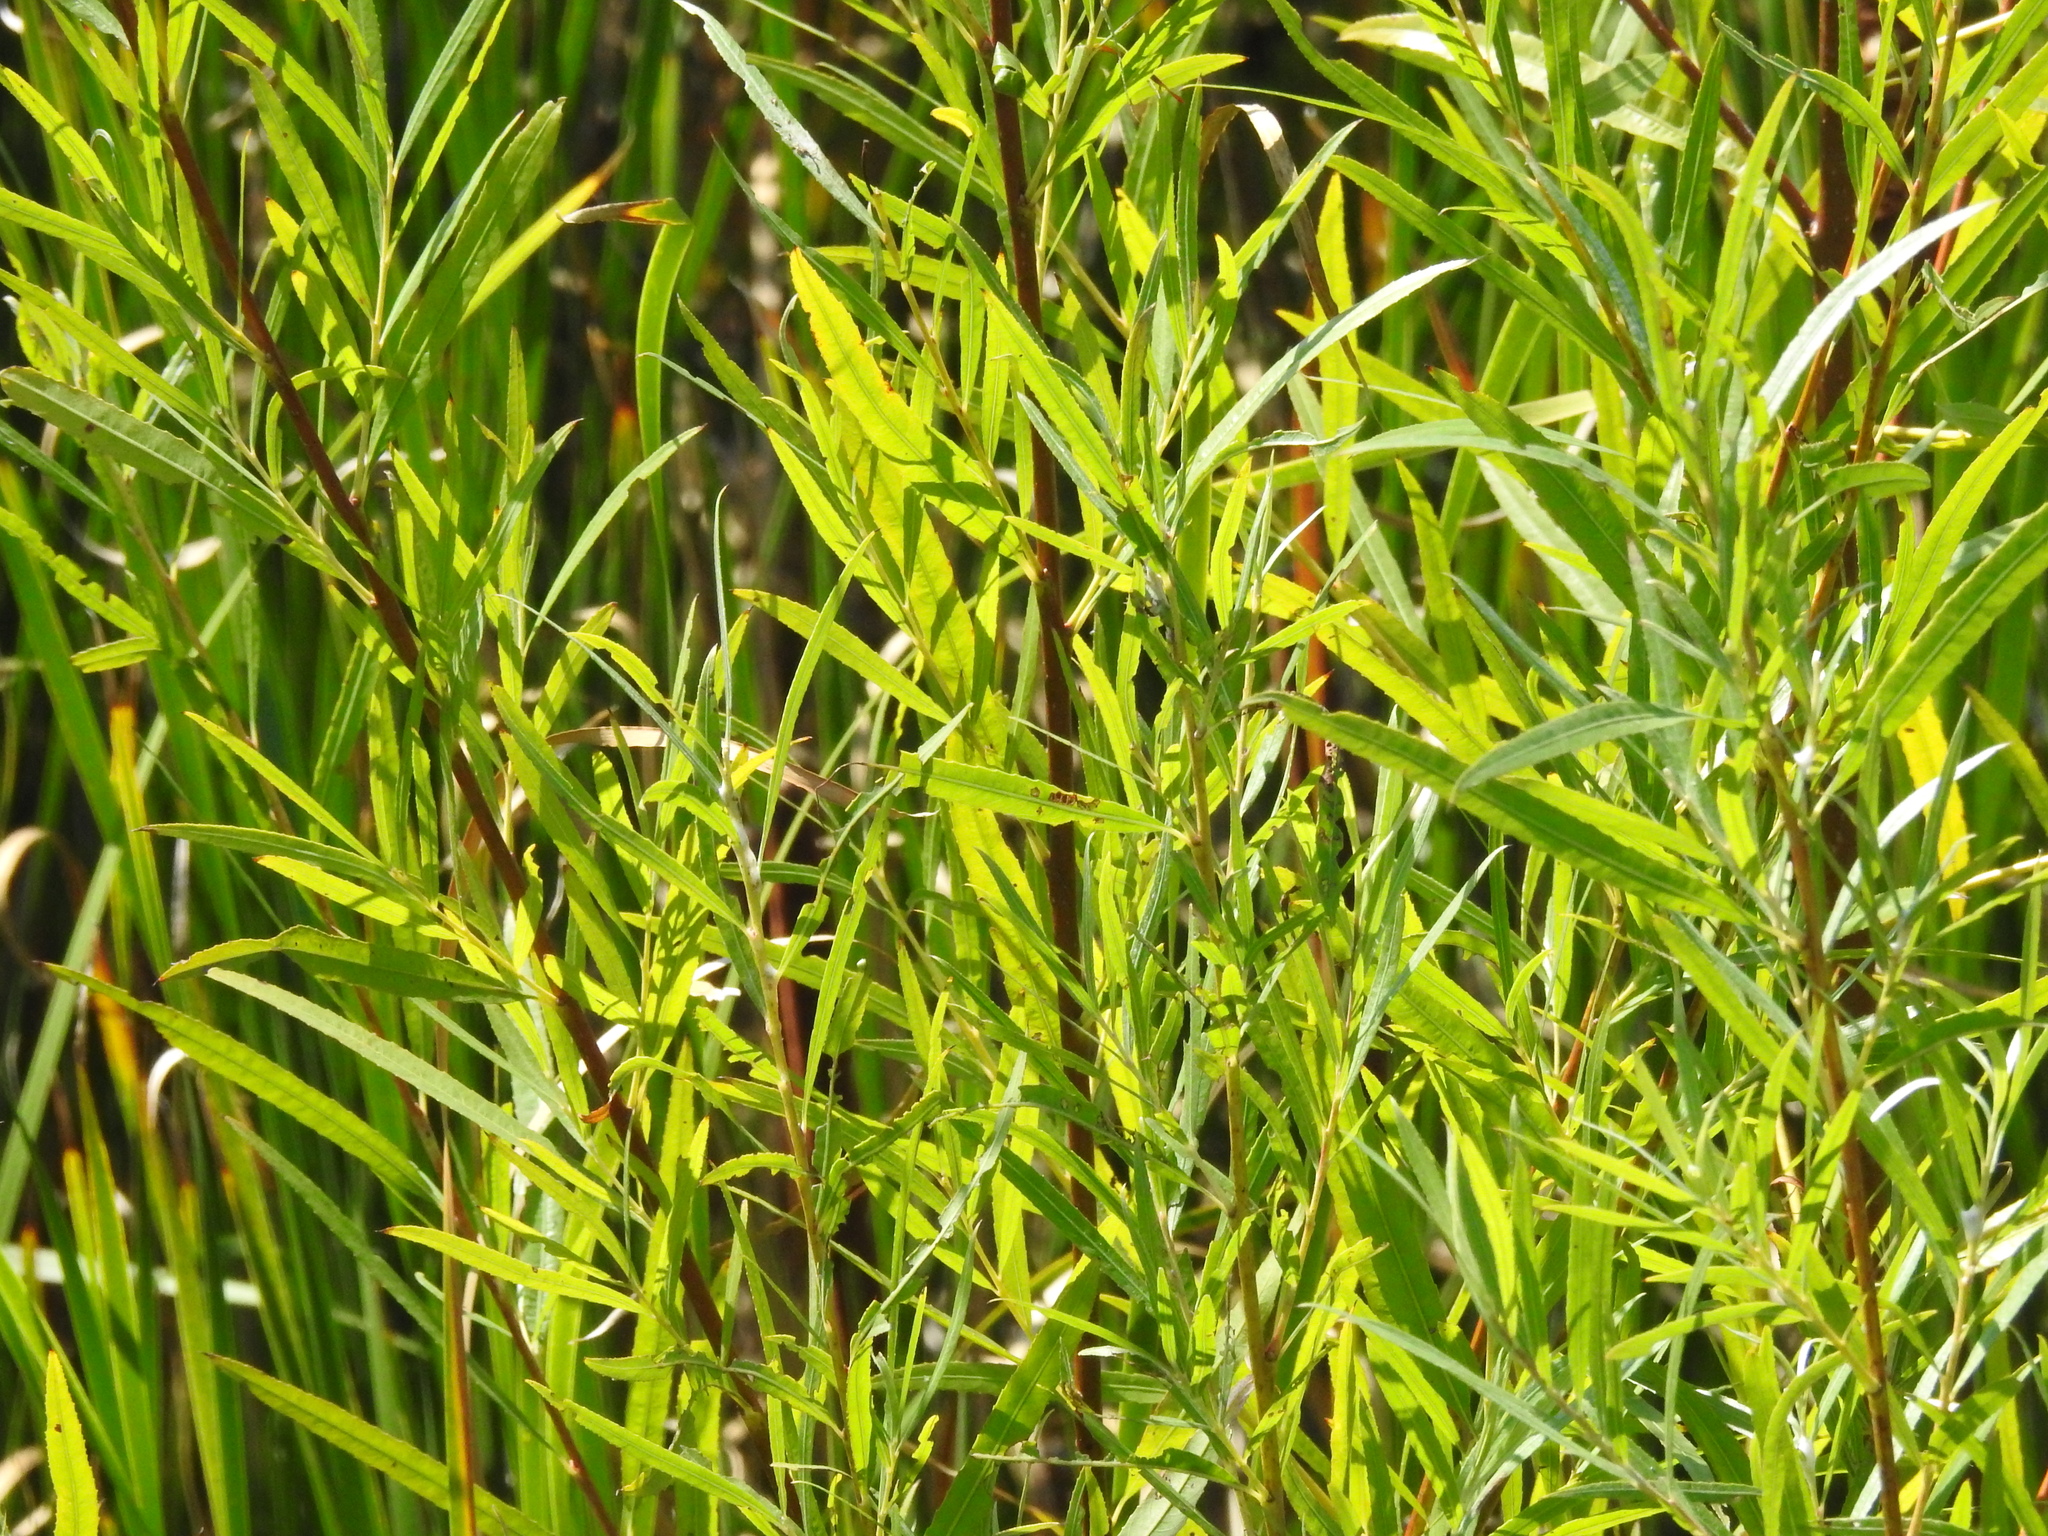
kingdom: Plantae
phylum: Tracheophyta
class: Magnoliopsida
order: Malpighiales
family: Salicaceae
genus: Salix
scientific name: Salix interior
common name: Sandbar willow
